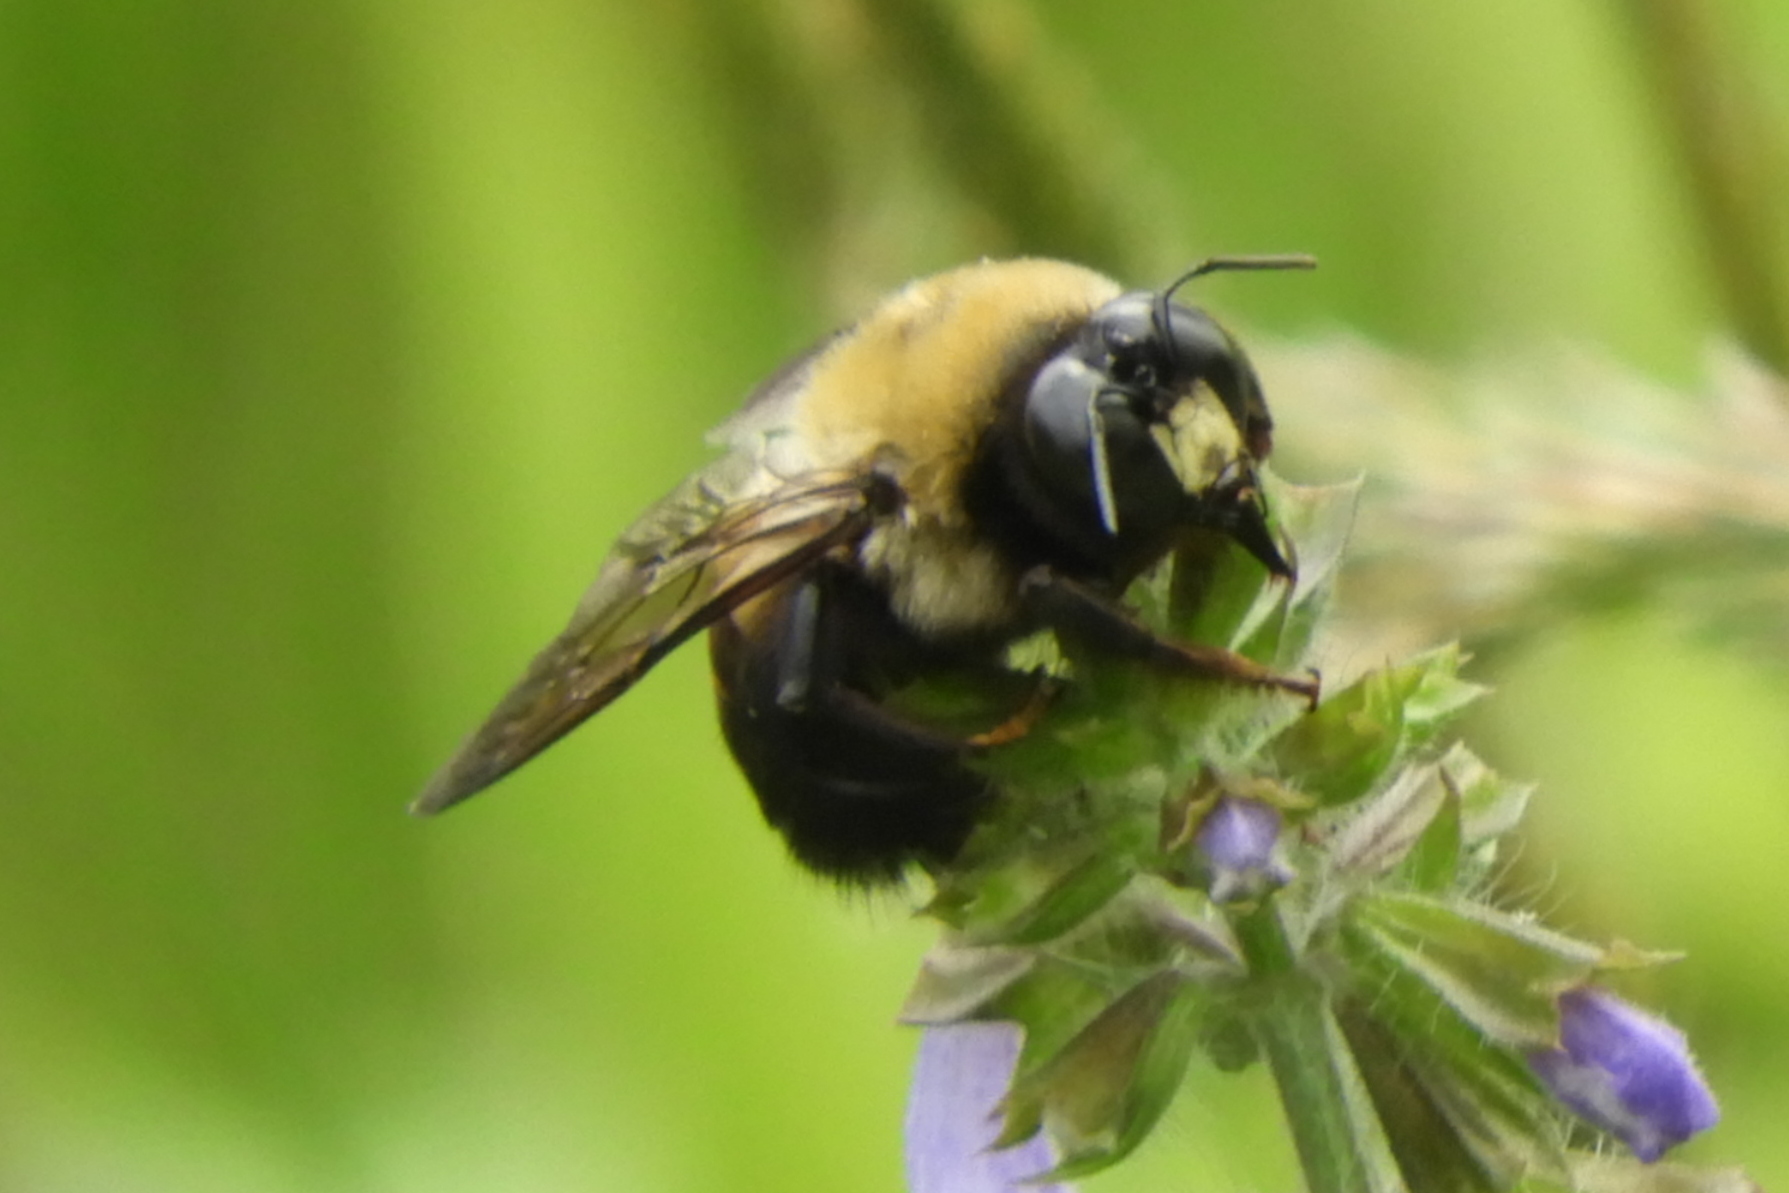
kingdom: Animalia
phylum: Arthropoda
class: Insecta
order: Hymenoptera
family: Apidae
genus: Xylocopa
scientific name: Xylocopa virginica
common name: Carpenter bee
